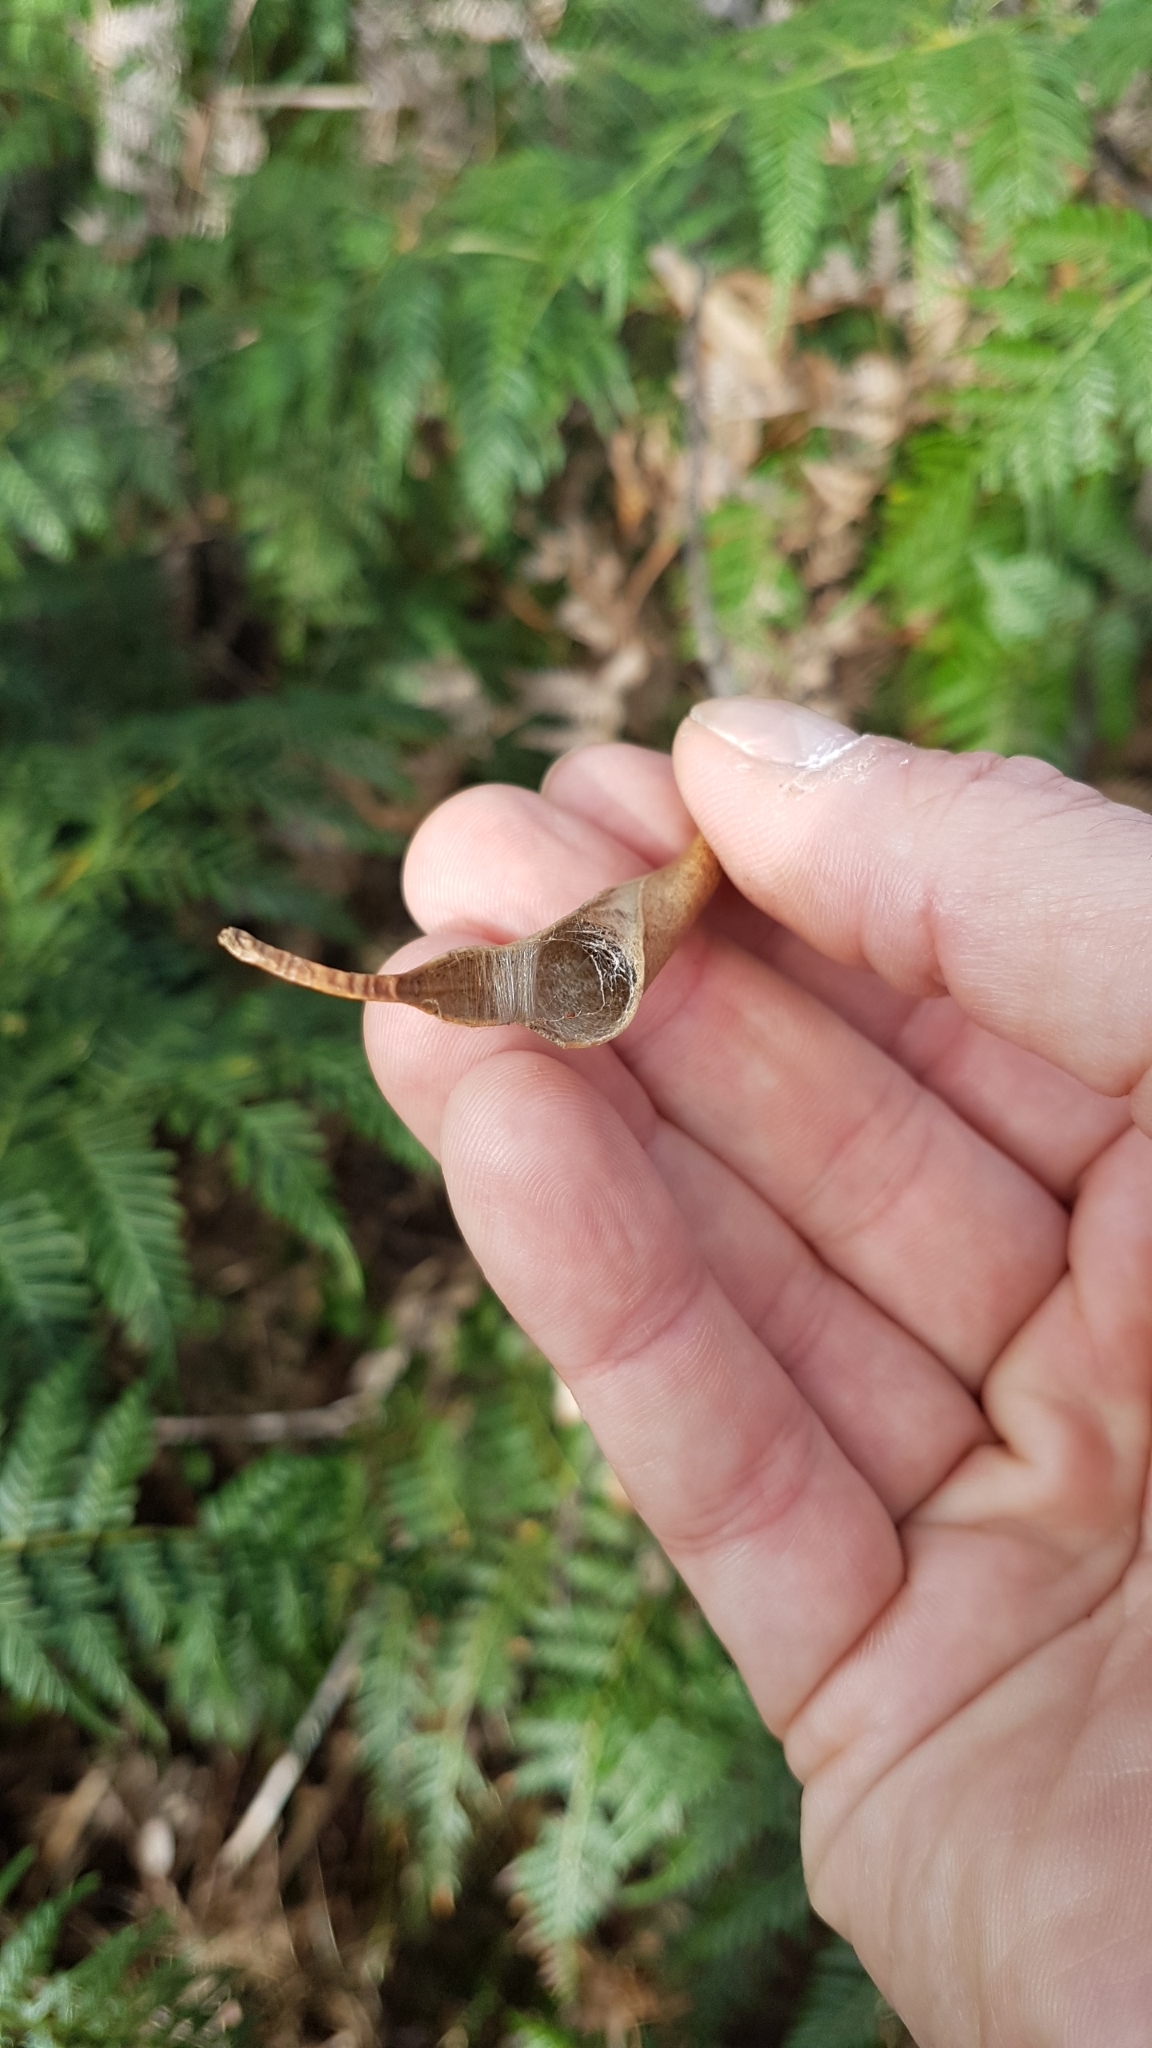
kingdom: Animalia
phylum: Arthropoda
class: Arachnida
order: Araneae
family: Araneidae
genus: Phonognatha
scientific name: Phonognatha graeffei
